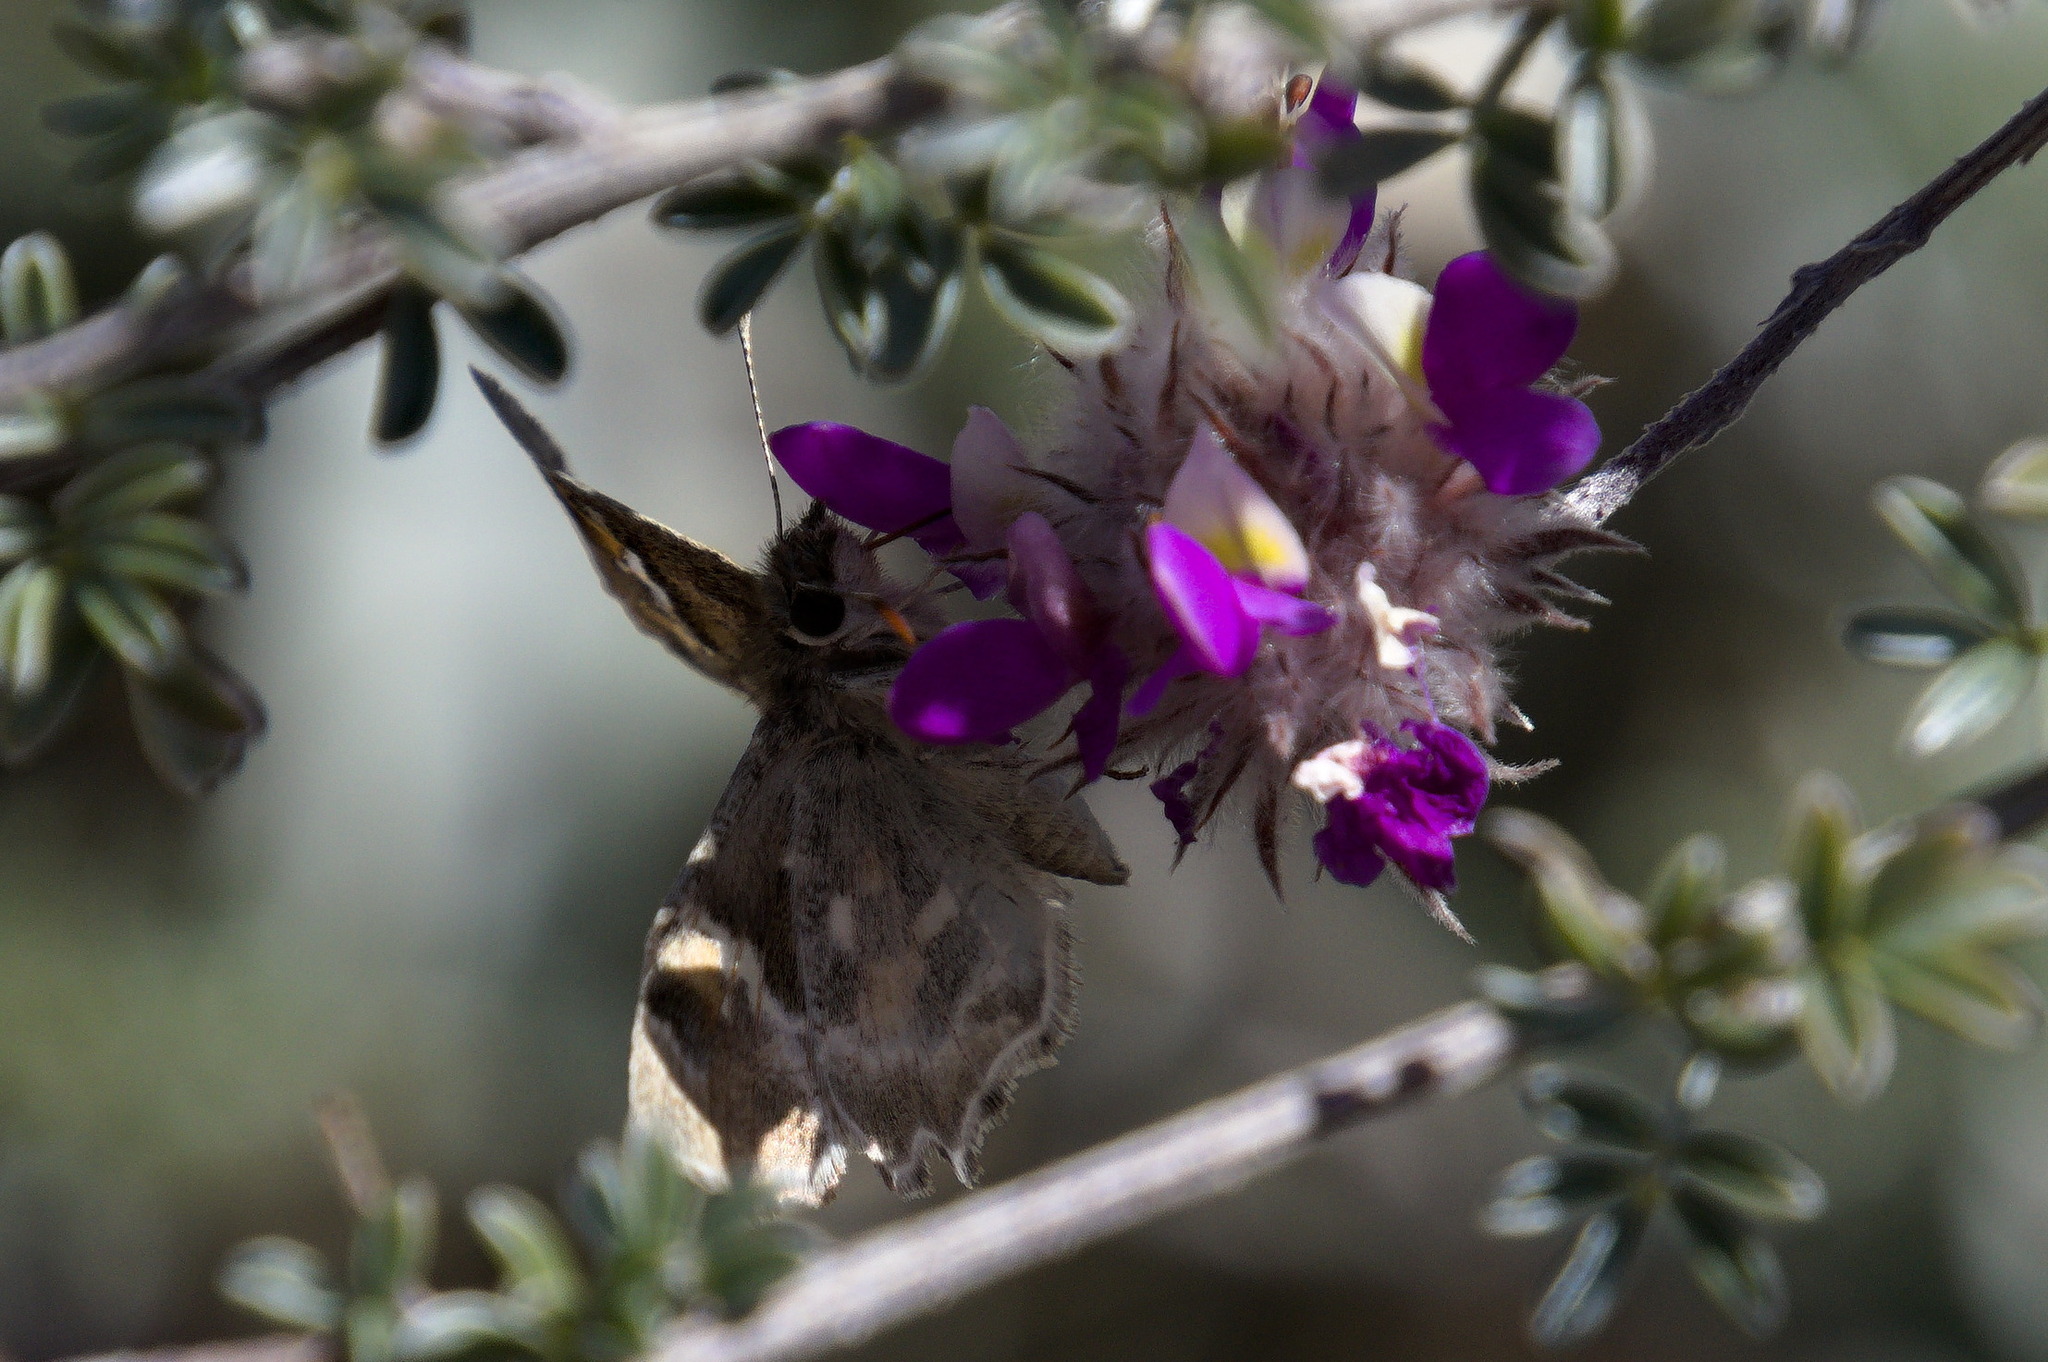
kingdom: Animalia
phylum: Arthropoda
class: Insecta
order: Lepidoptera
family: Hesperiidae
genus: Systasea
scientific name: Systasea zampa
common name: Arizona powdered-skipper
